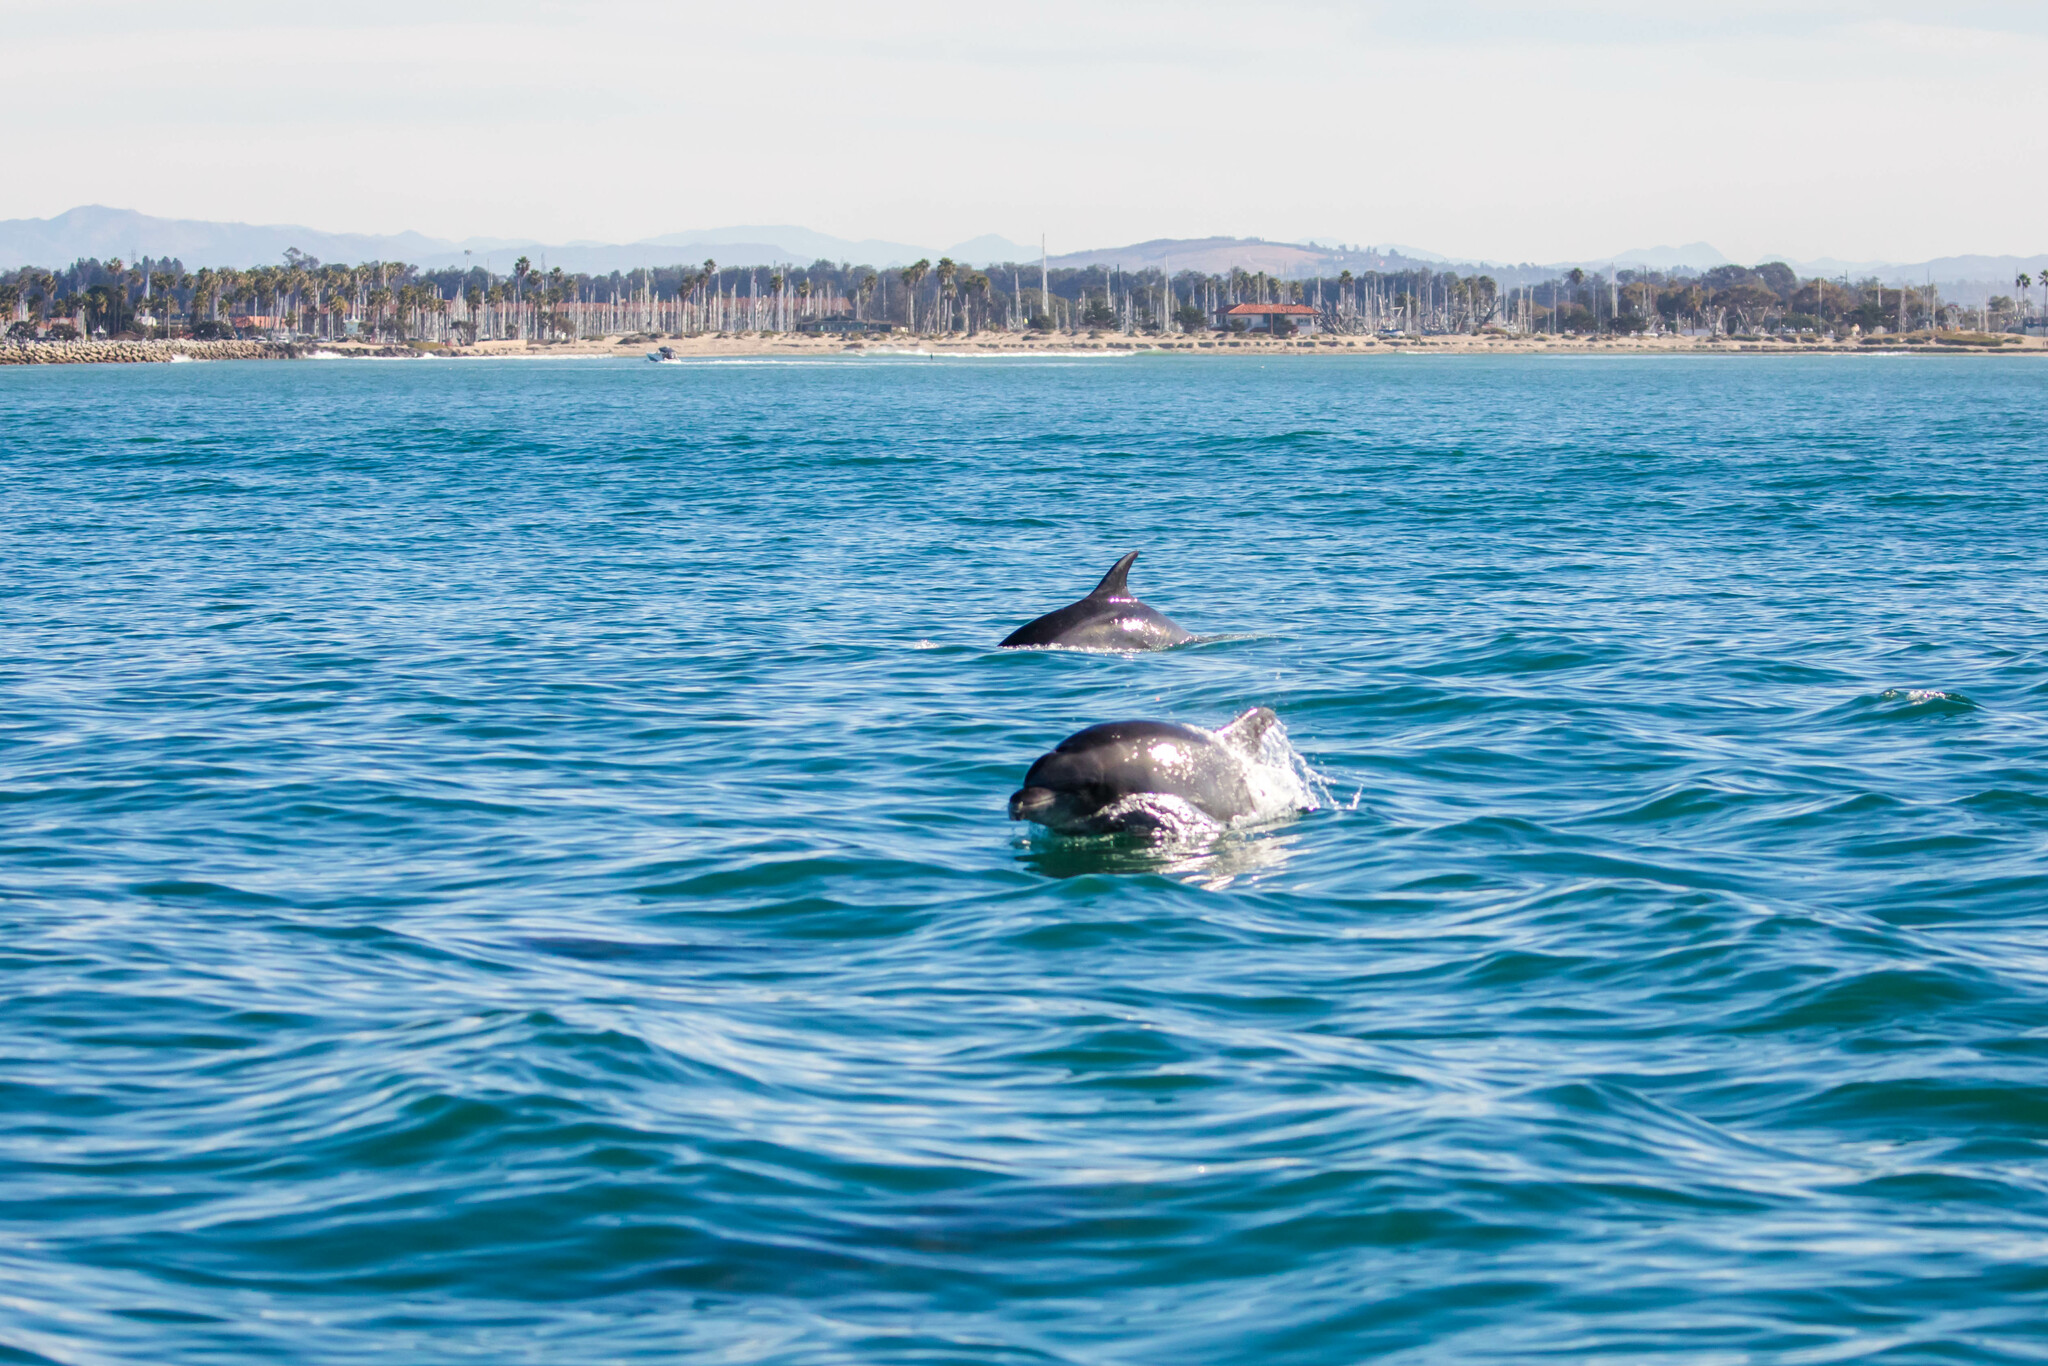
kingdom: Animalia
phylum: Chordata
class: Mammalia
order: Cetacea
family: Delphinidae
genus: Tursiops
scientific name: Tursiops truncatus
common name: Bottlenose dolphin
